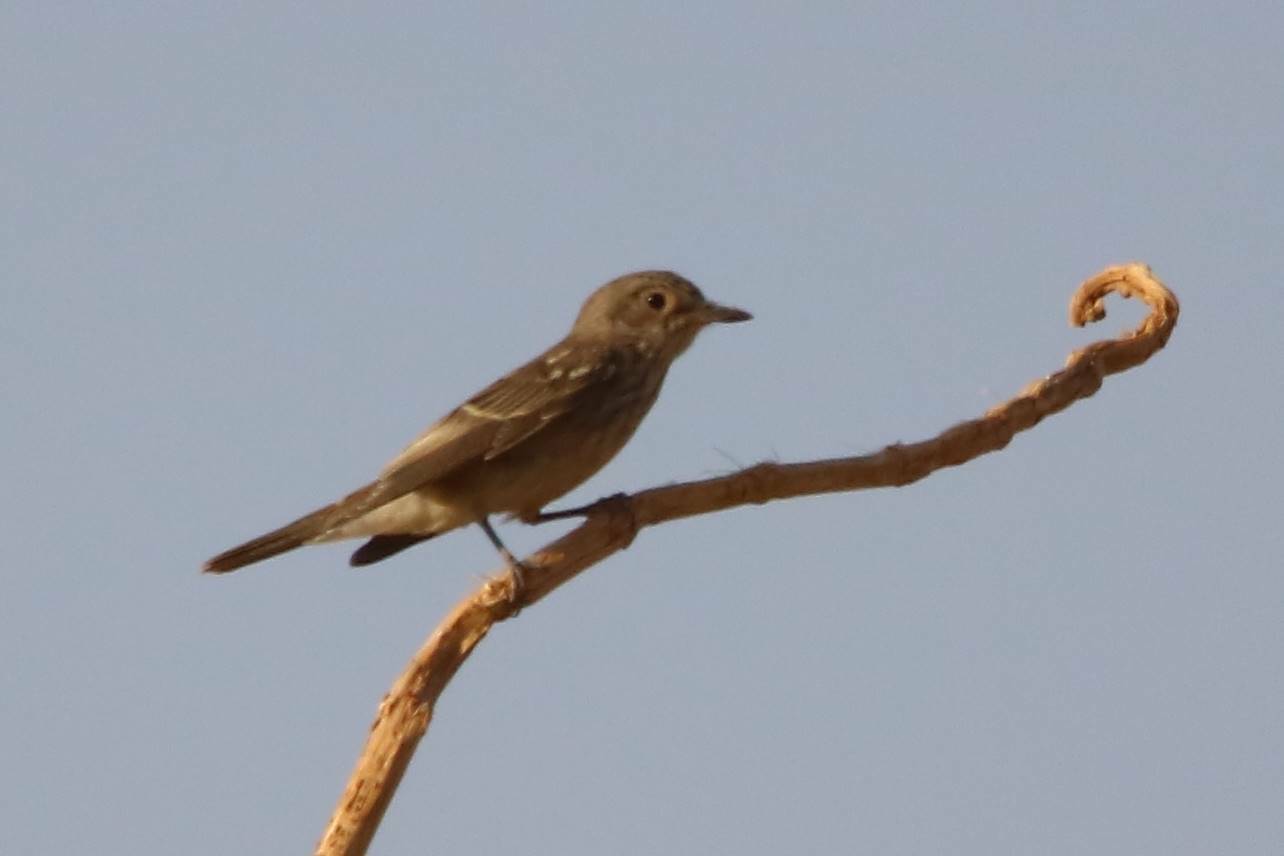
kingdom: Animalia
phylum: Chordata
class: Aves
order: Passeriformes
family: Muscicapidae
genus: Muscicapa
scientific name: Muscicapa striata
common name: Spotted flycatcher
